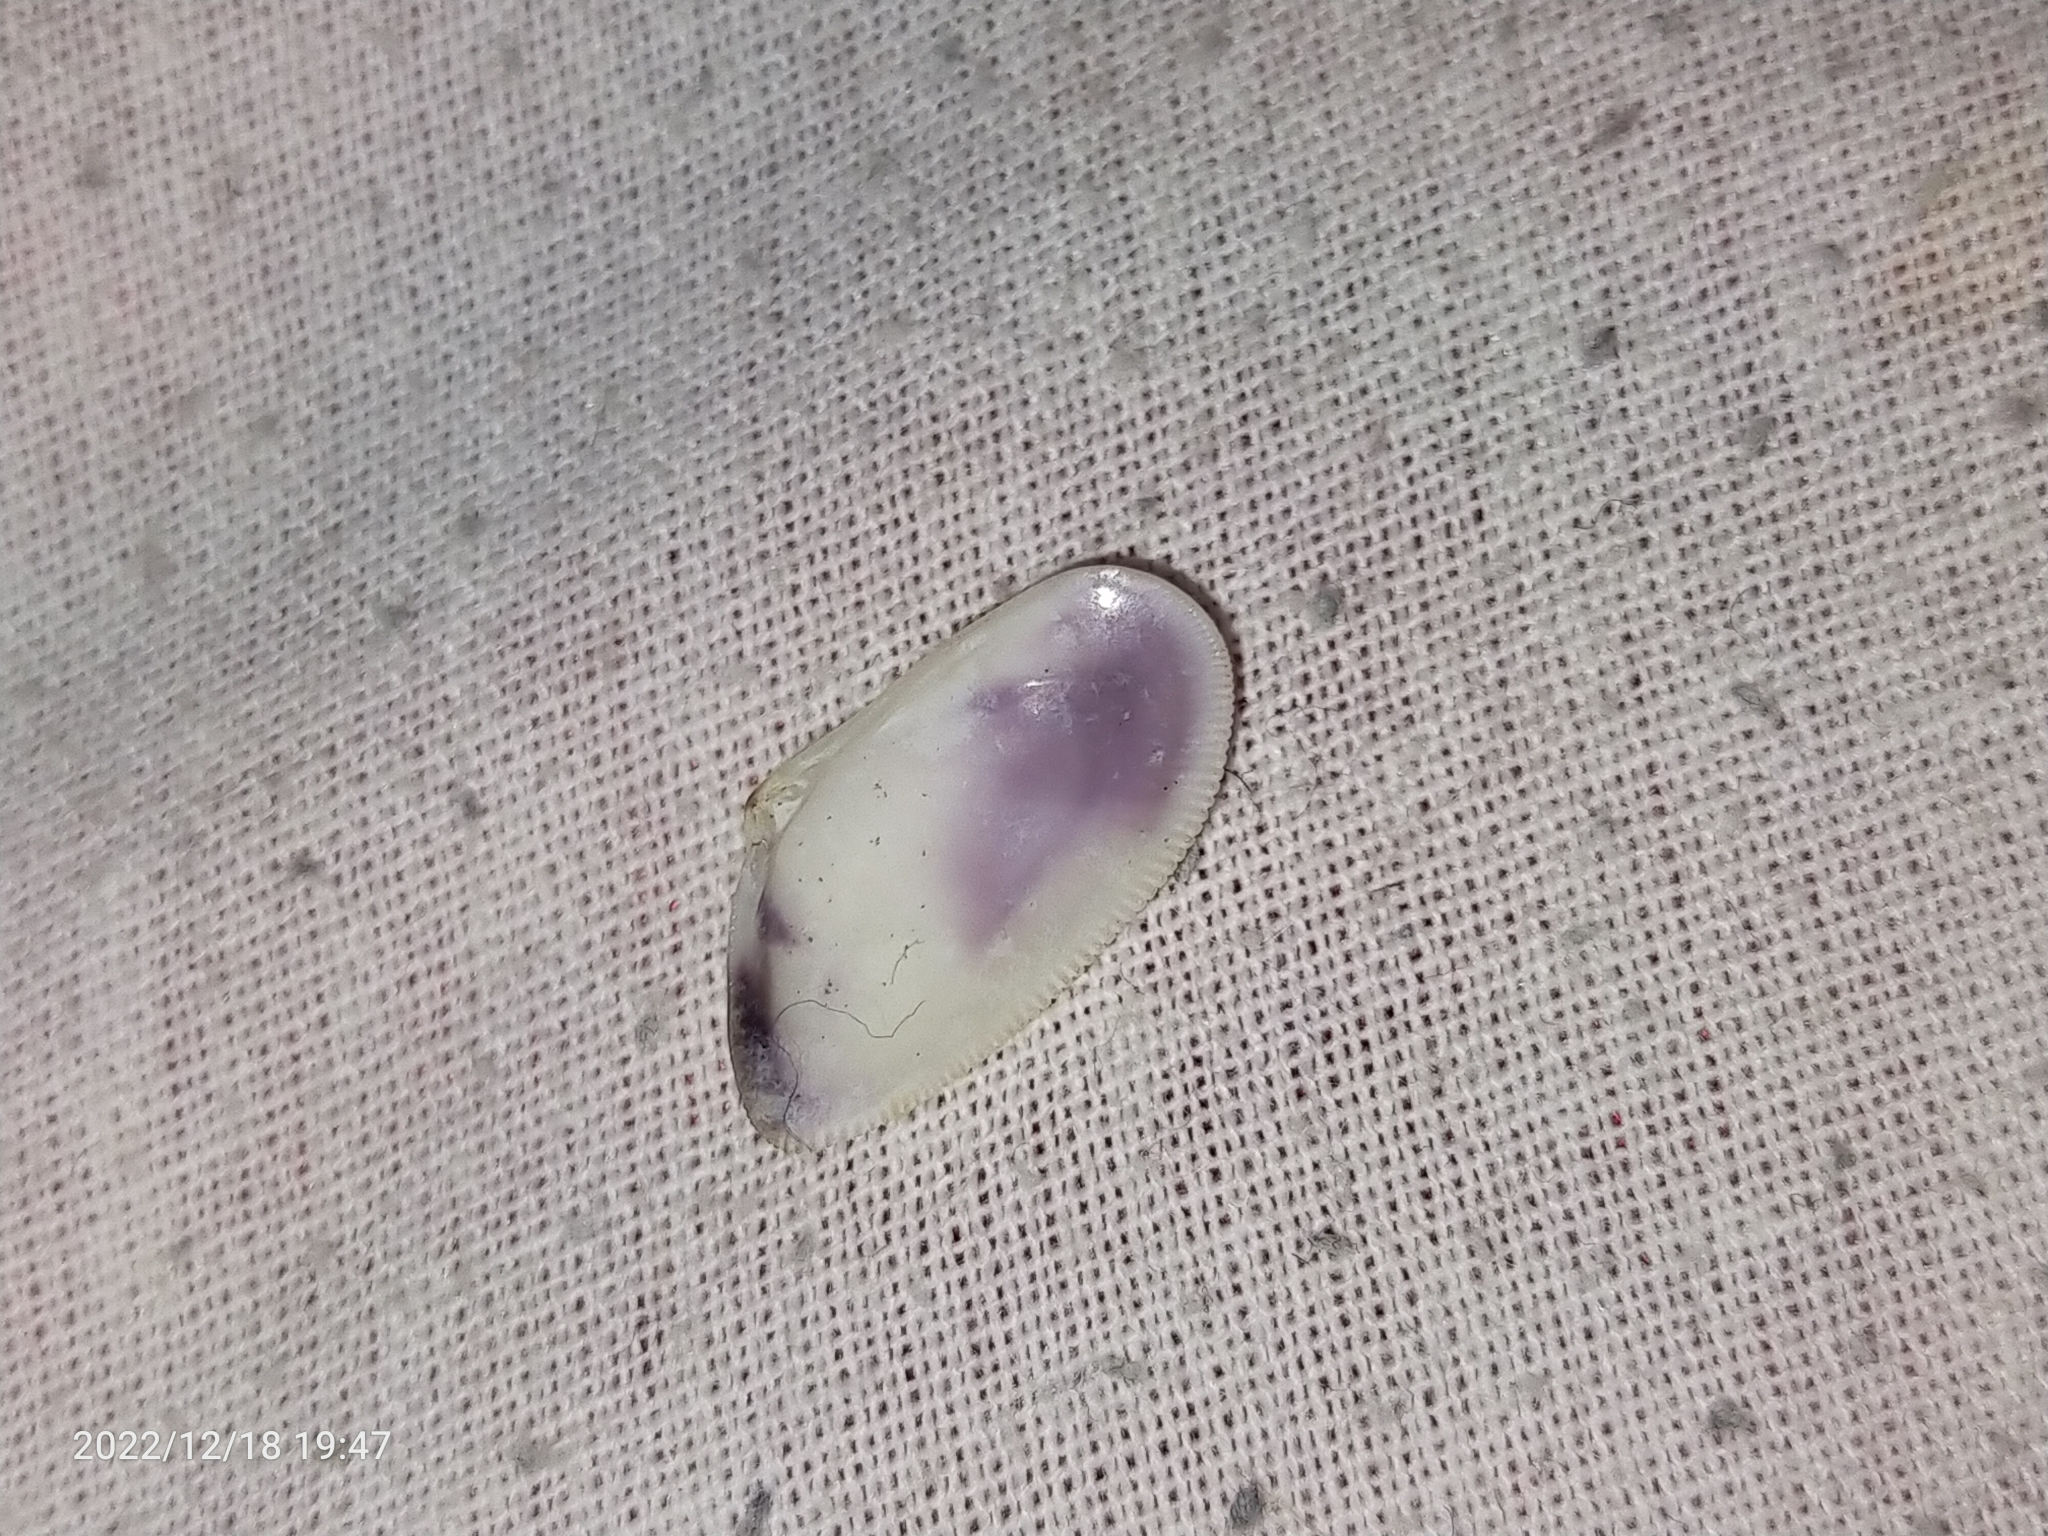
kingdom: Animalia
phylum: Mollusca
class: Bivalvia
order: Cardiida
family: Donacidae
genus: Donax
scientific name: Donax
